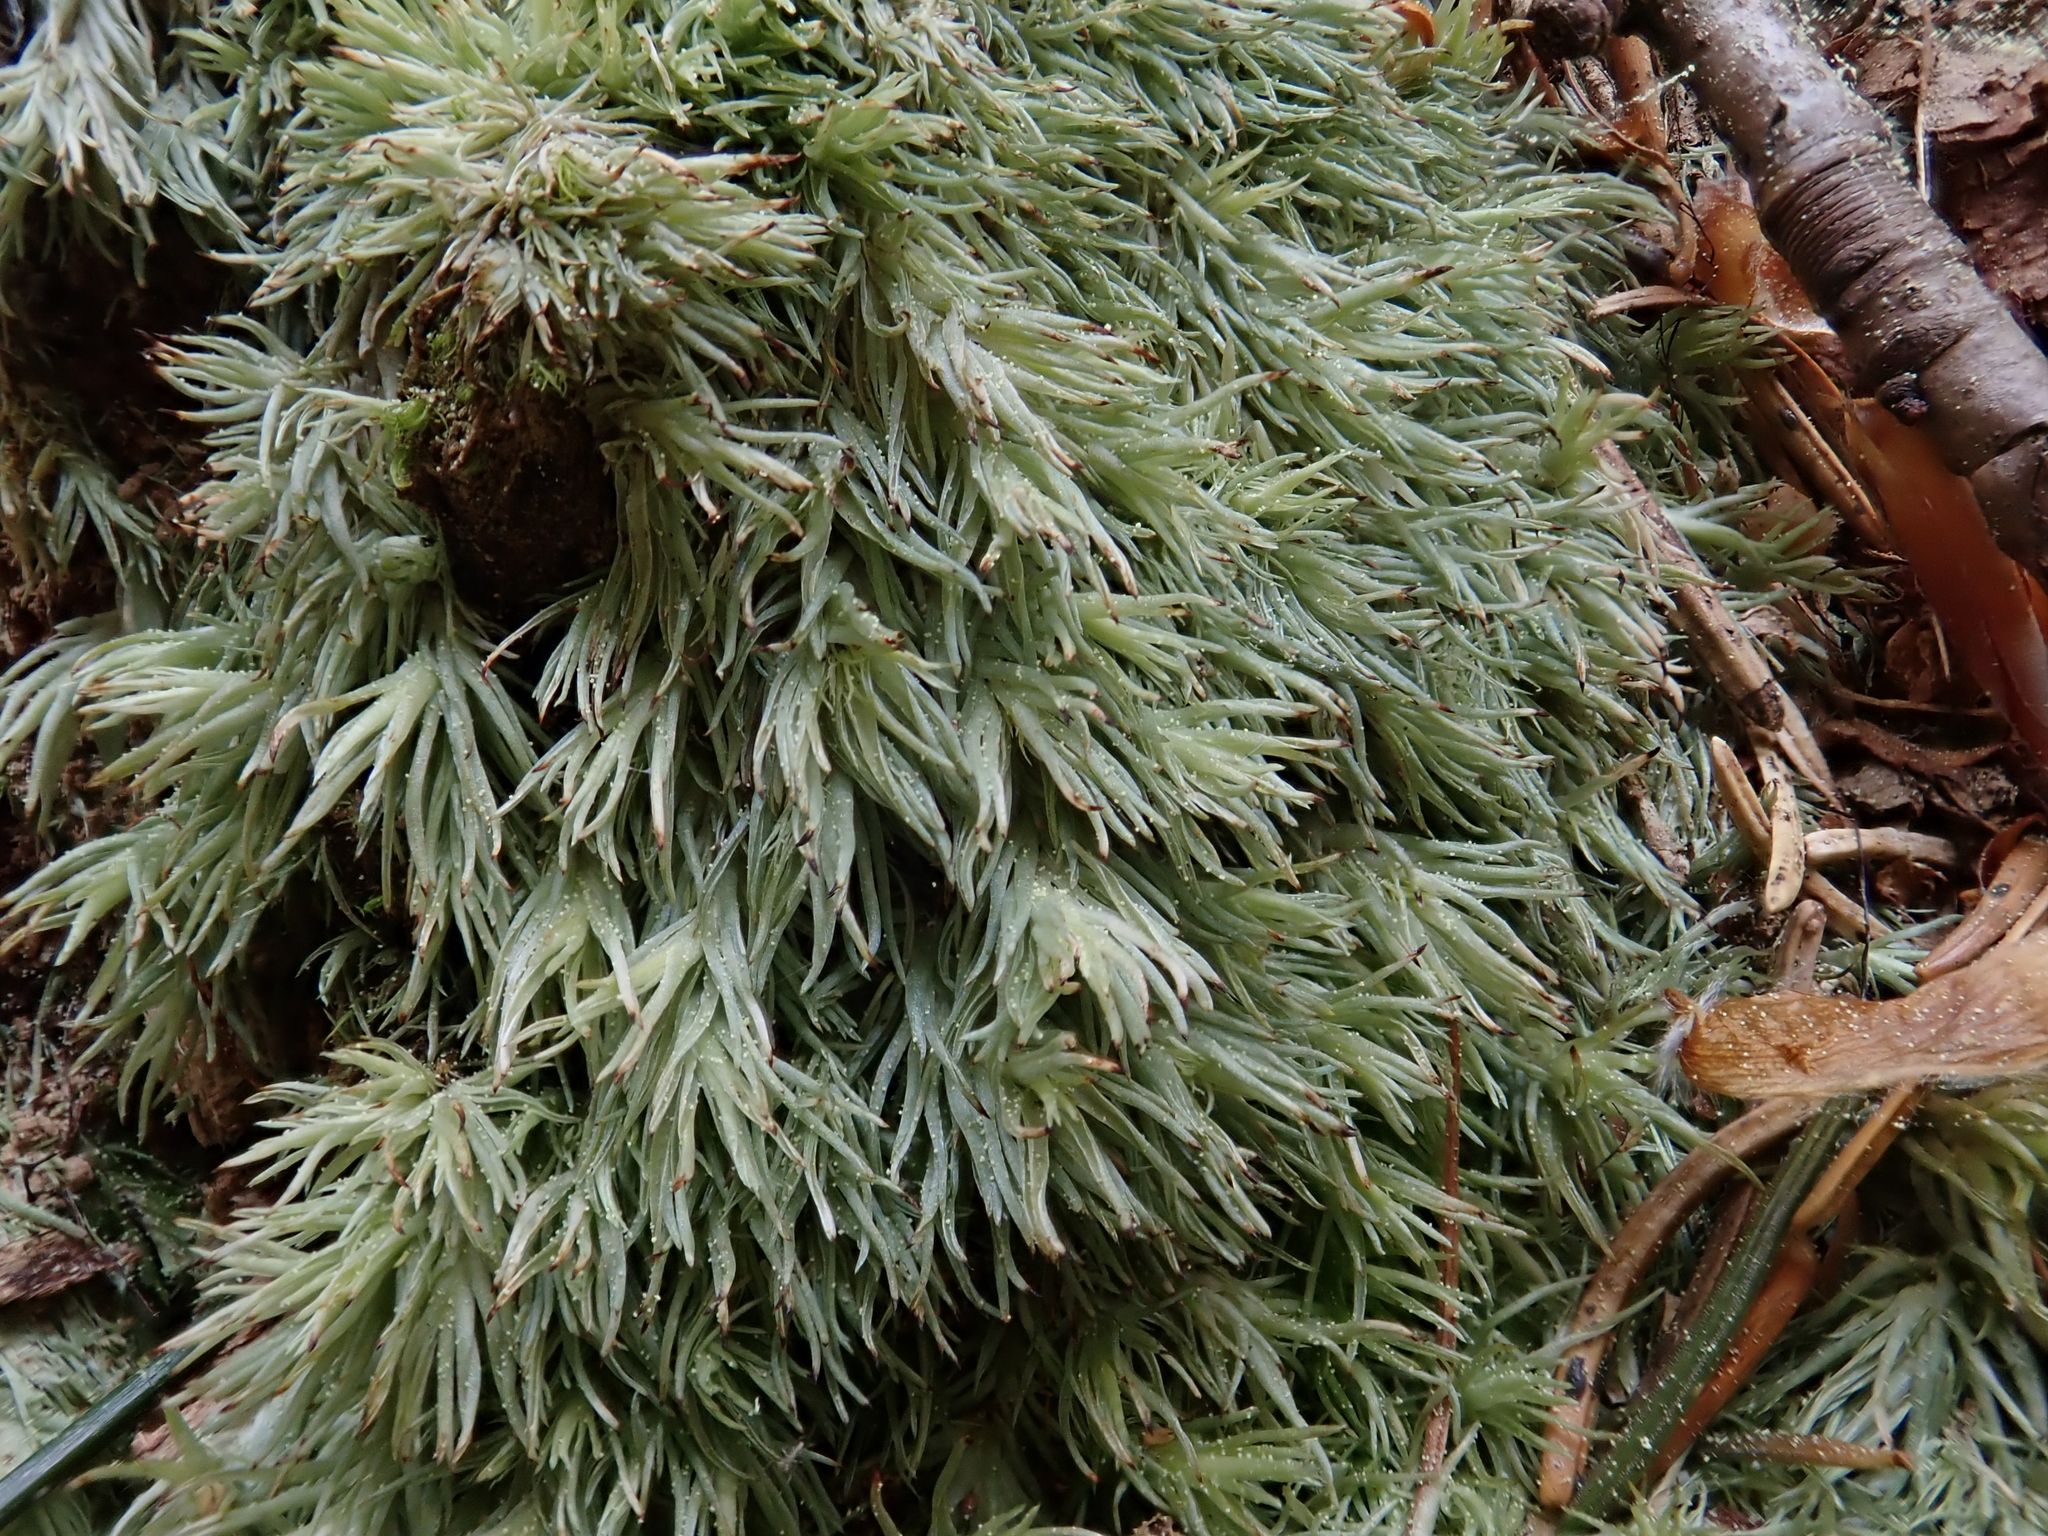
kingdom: Plantae
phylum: Bryophyta
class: Bryopsida
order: Dicranales
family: Leucobryaceae
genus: Leucobryum
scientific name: Leucobryum glaucum
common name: Large white-moss
